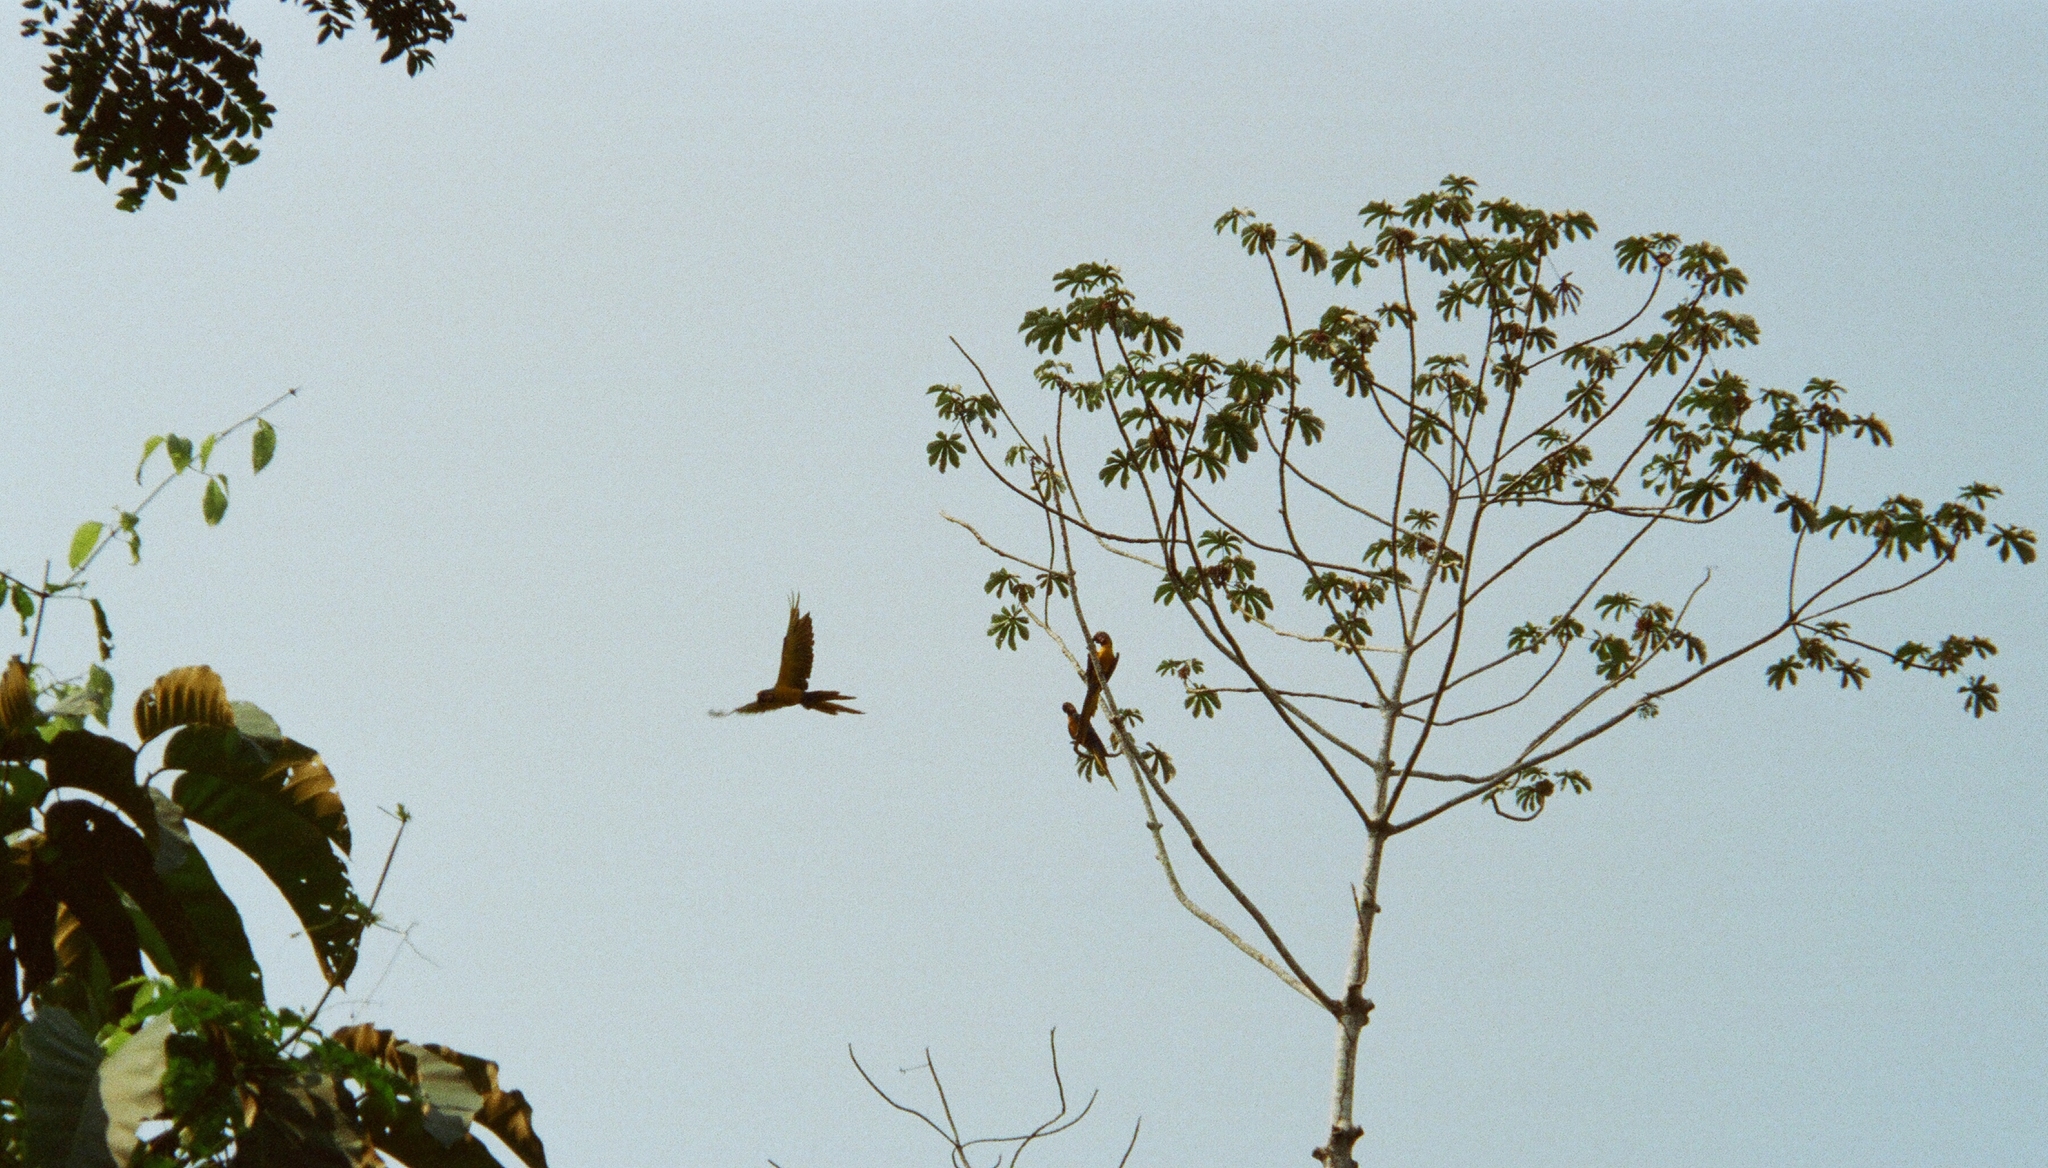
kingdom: Animalia
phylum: Chordata
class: Aves
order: Psittaciformes
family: Psittacidae
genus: Ara
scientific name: Ara ararauna
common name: Blue-and-yellow macaw
